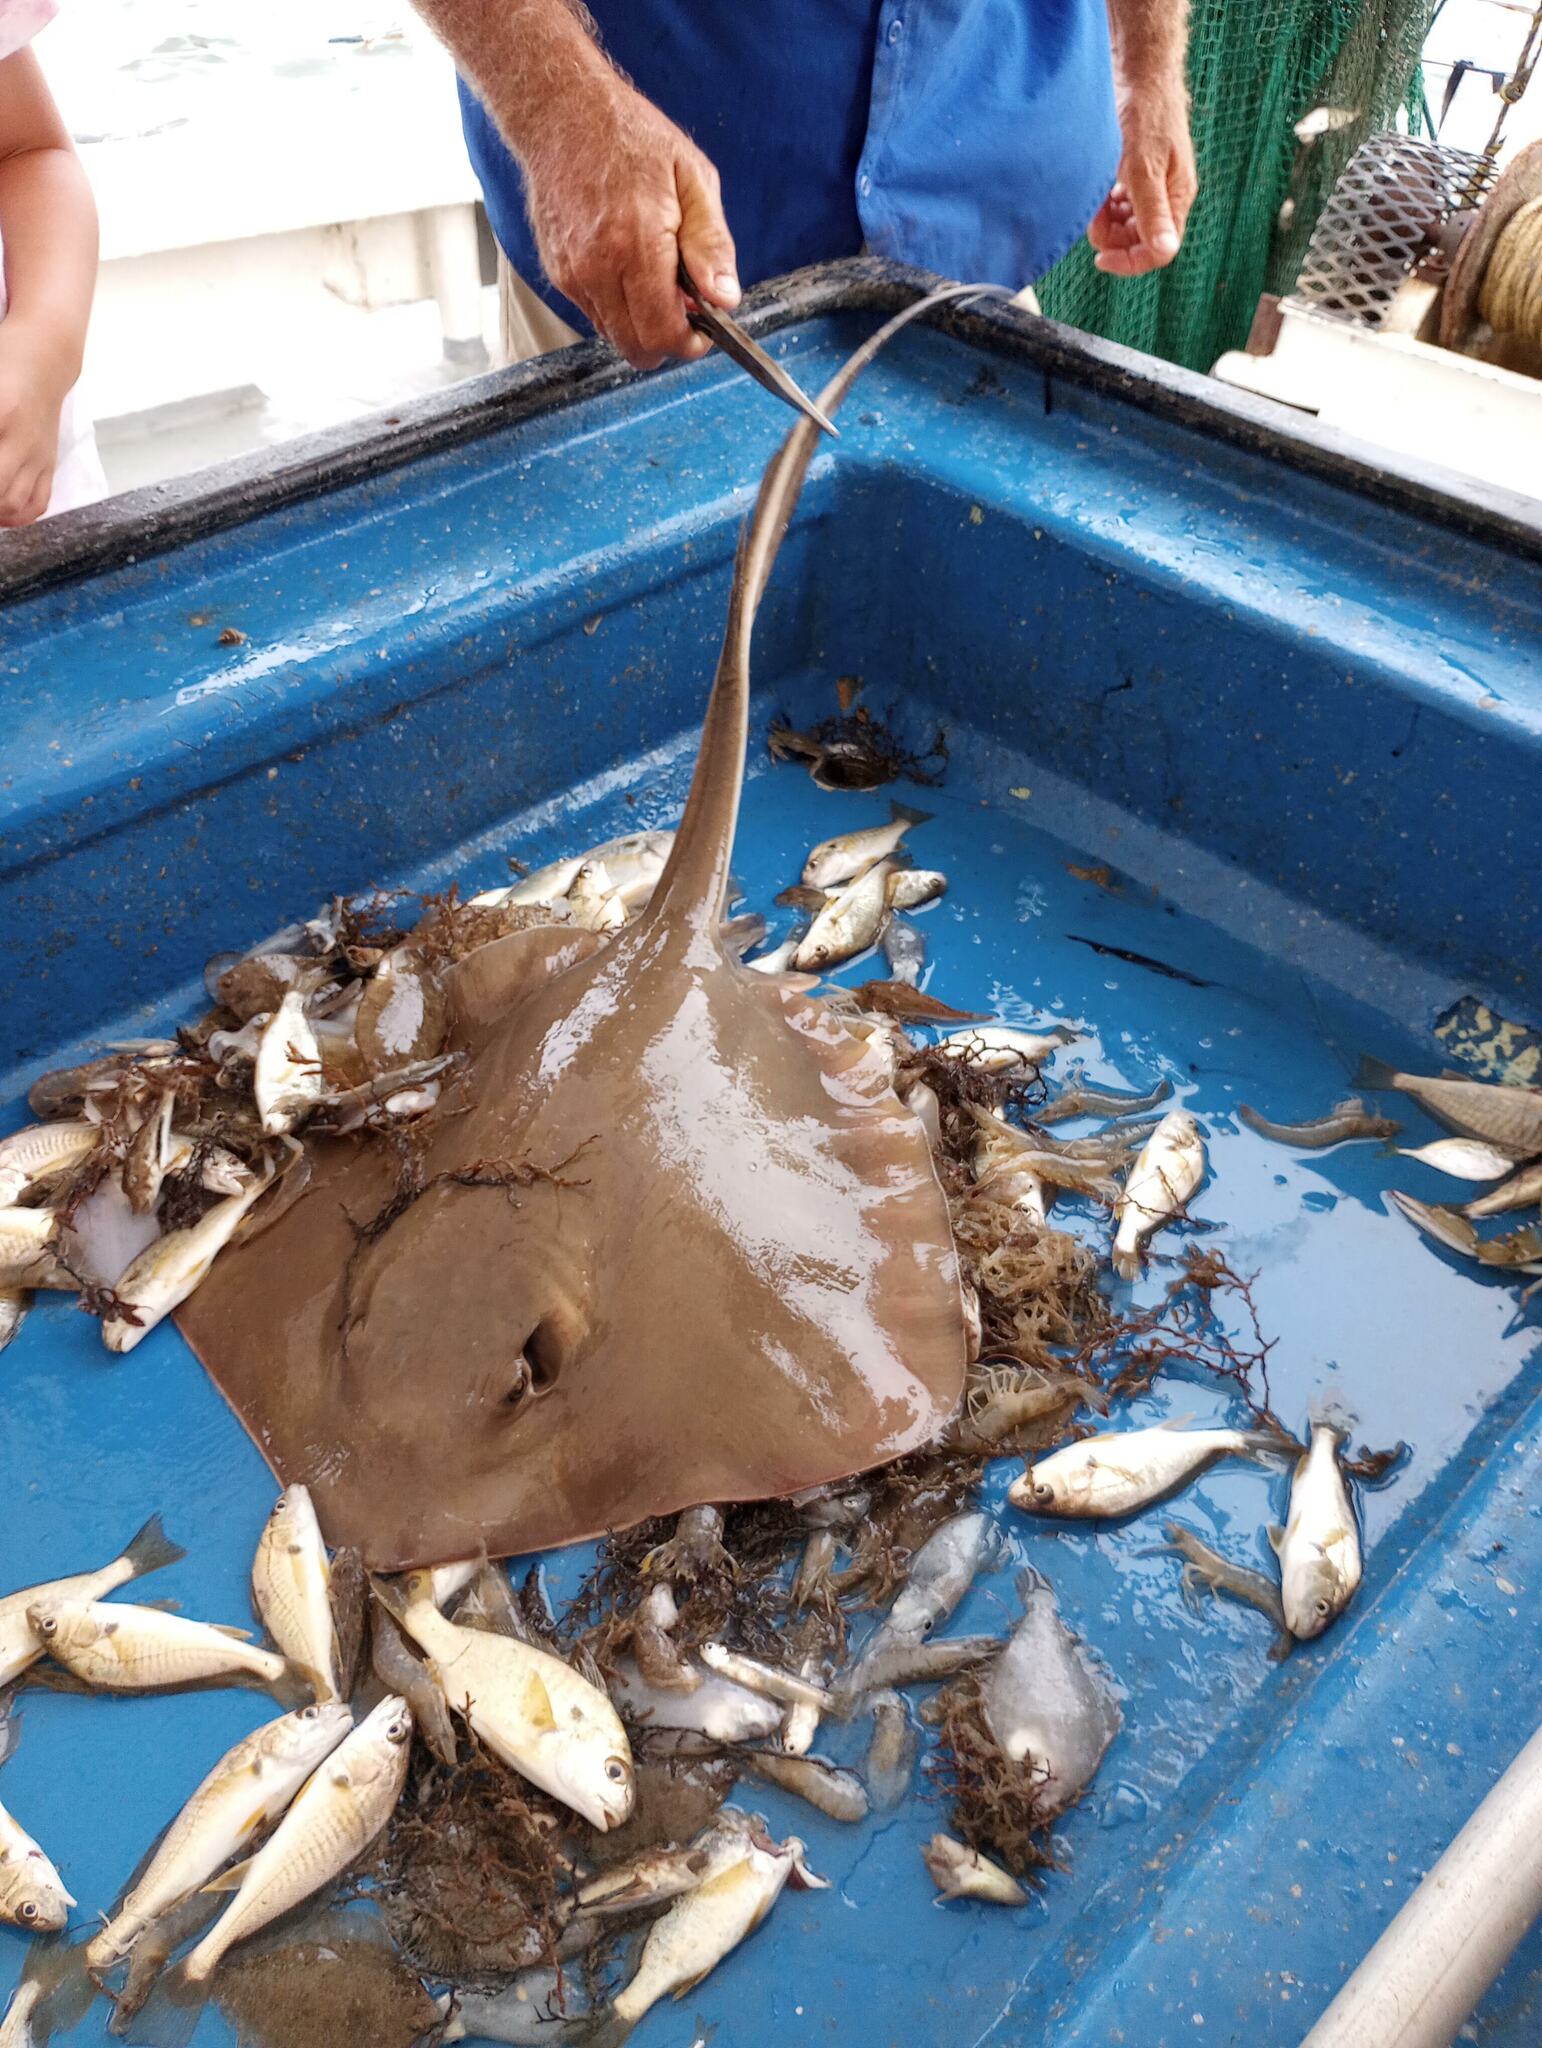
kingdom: Animalia
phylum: Chordata
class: Elasmobranchii
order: Myliobatiformes
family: Dasyatidae
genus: Hypanus
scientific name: Hypanus
